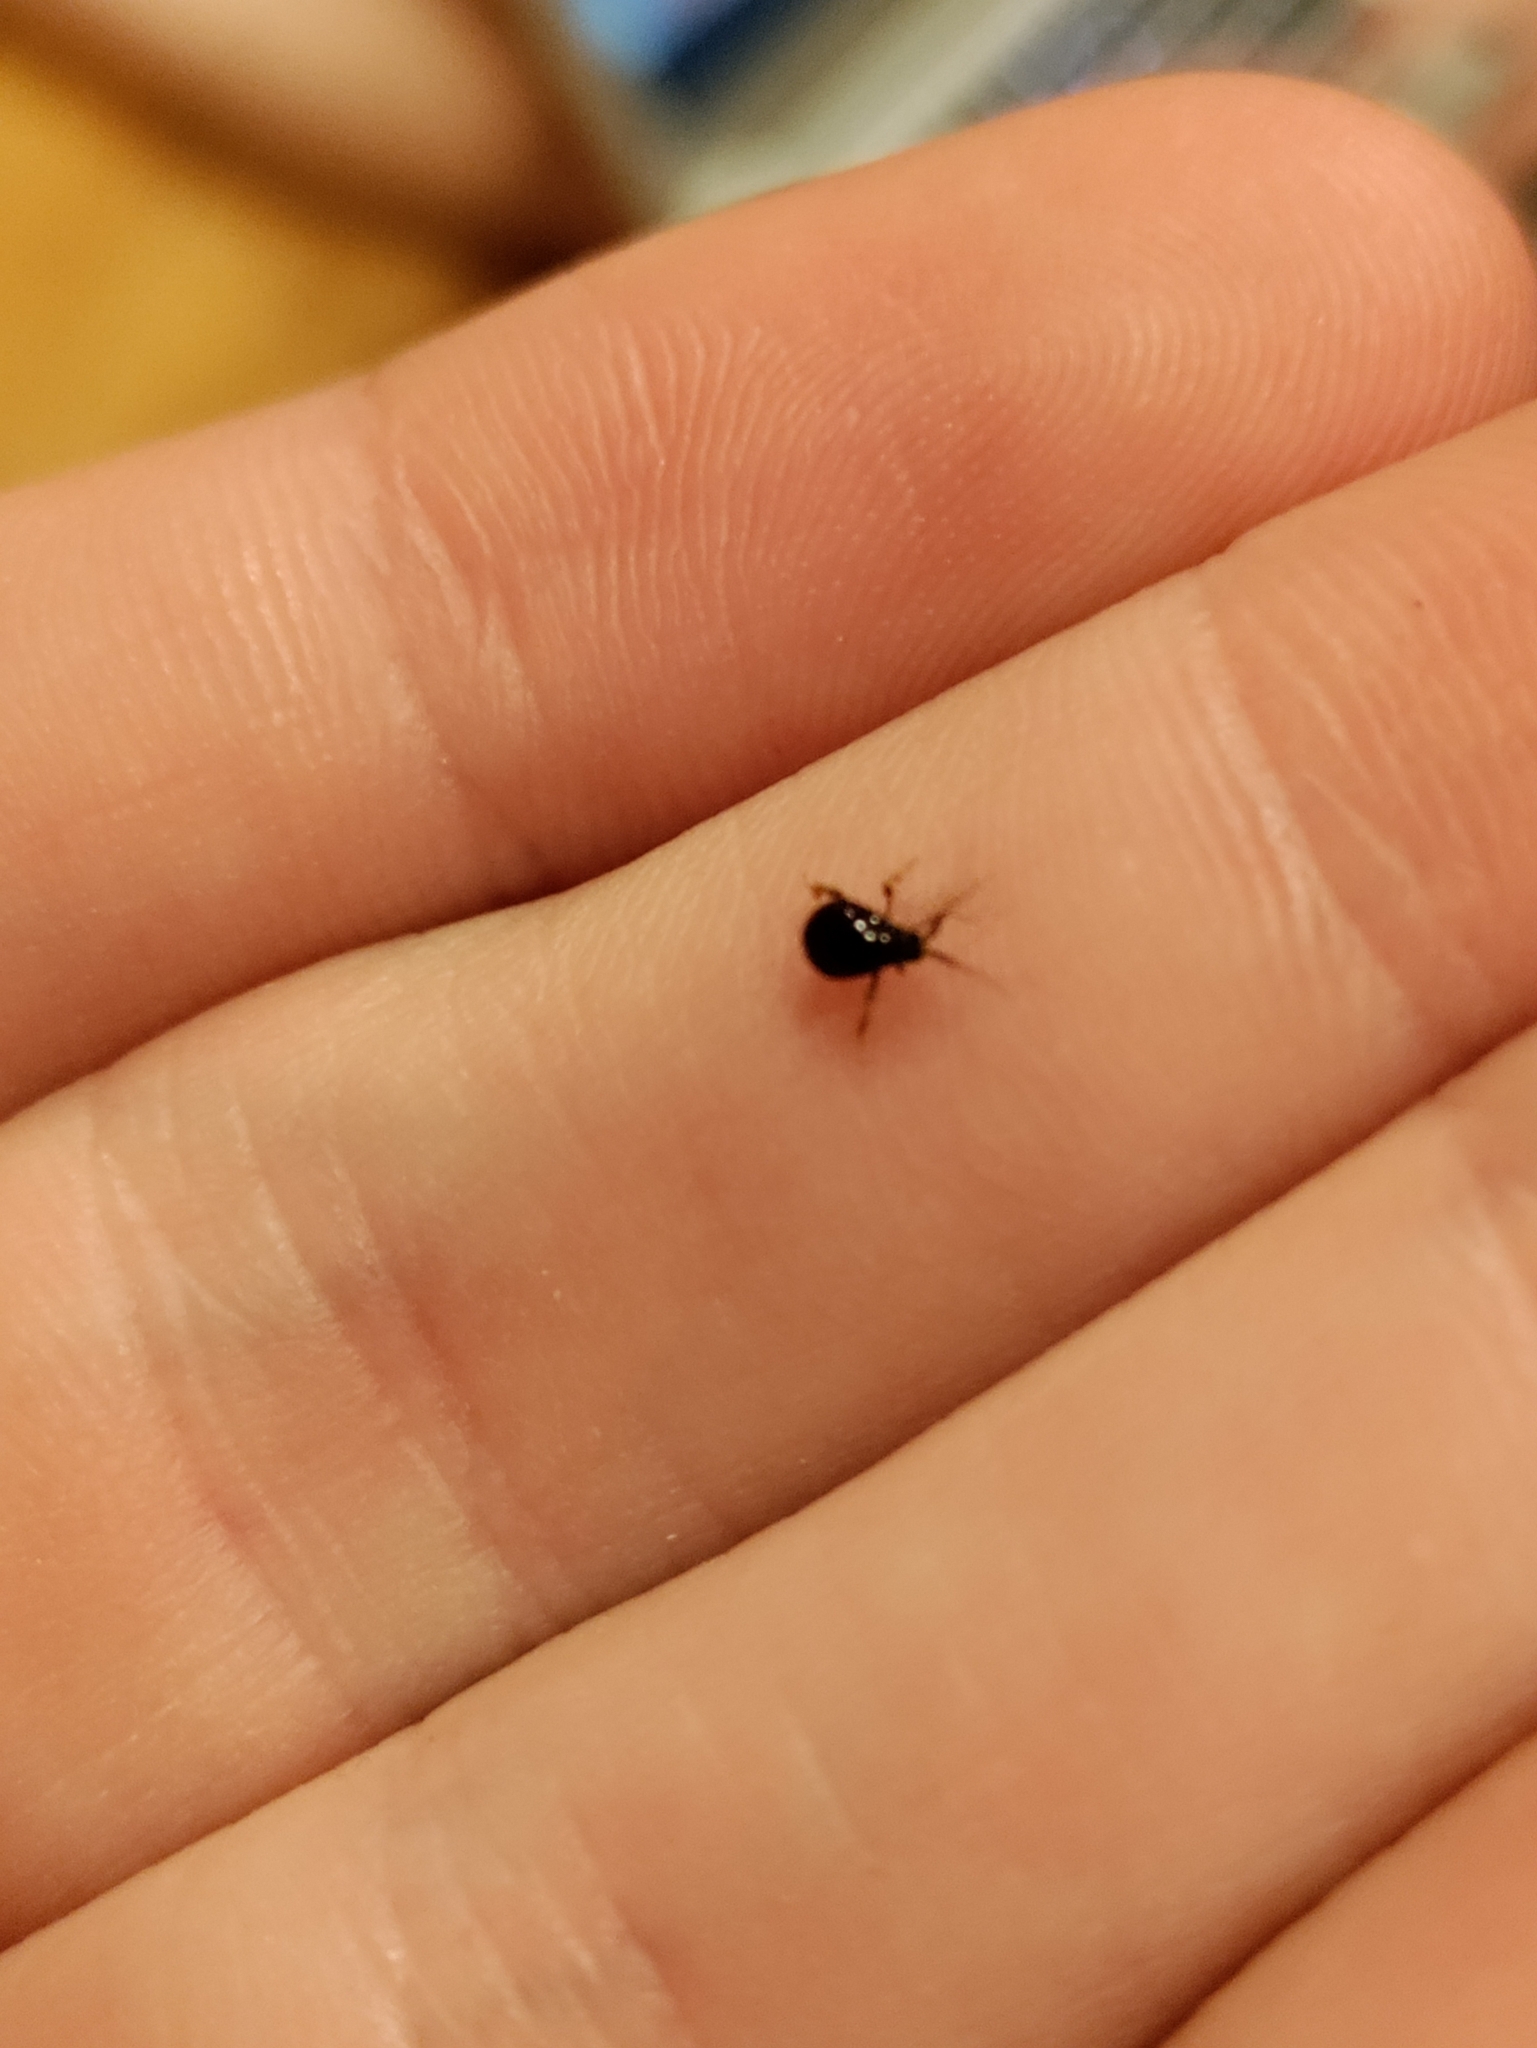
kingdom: Animalia
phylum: Arthropoda
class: Insecta
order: Coleoptera
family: Ptinidae
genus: Gibbium
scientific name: Gibbium aequinoctiale
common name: Smooth spider beetle
